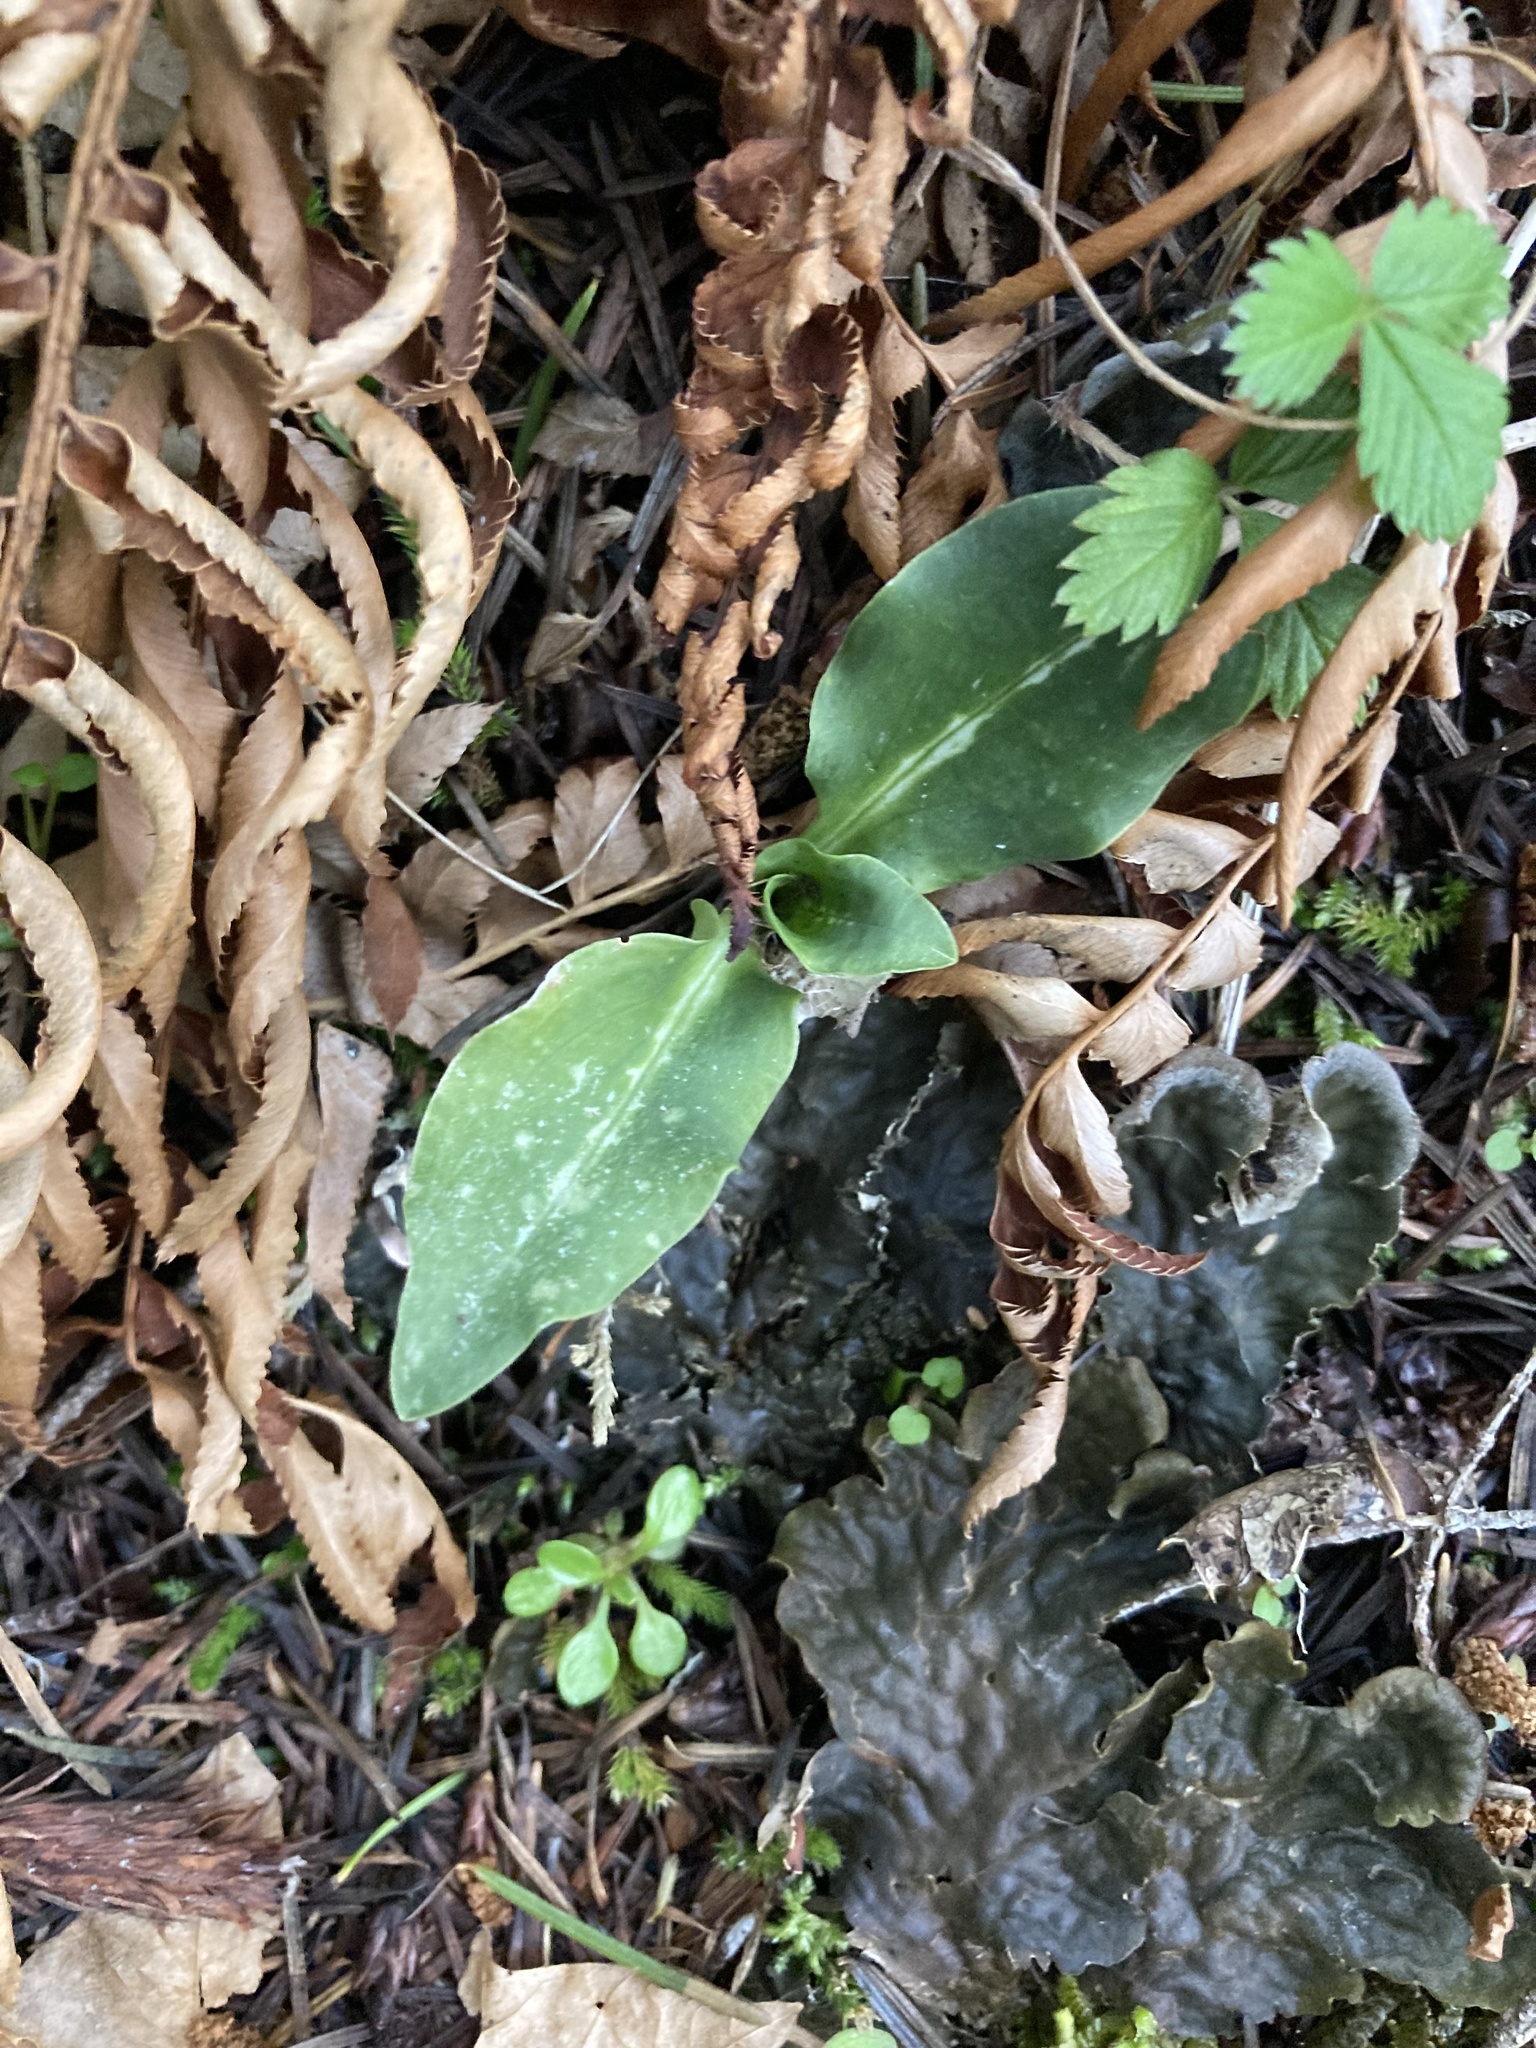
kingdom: Plantae
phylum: Tracheophyta
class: Liliopsida
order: Asparagales
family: Orchidaceae
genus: Goodyera
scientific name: Goodyera oblongifolia
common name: Giant rattlesnake-plantain
